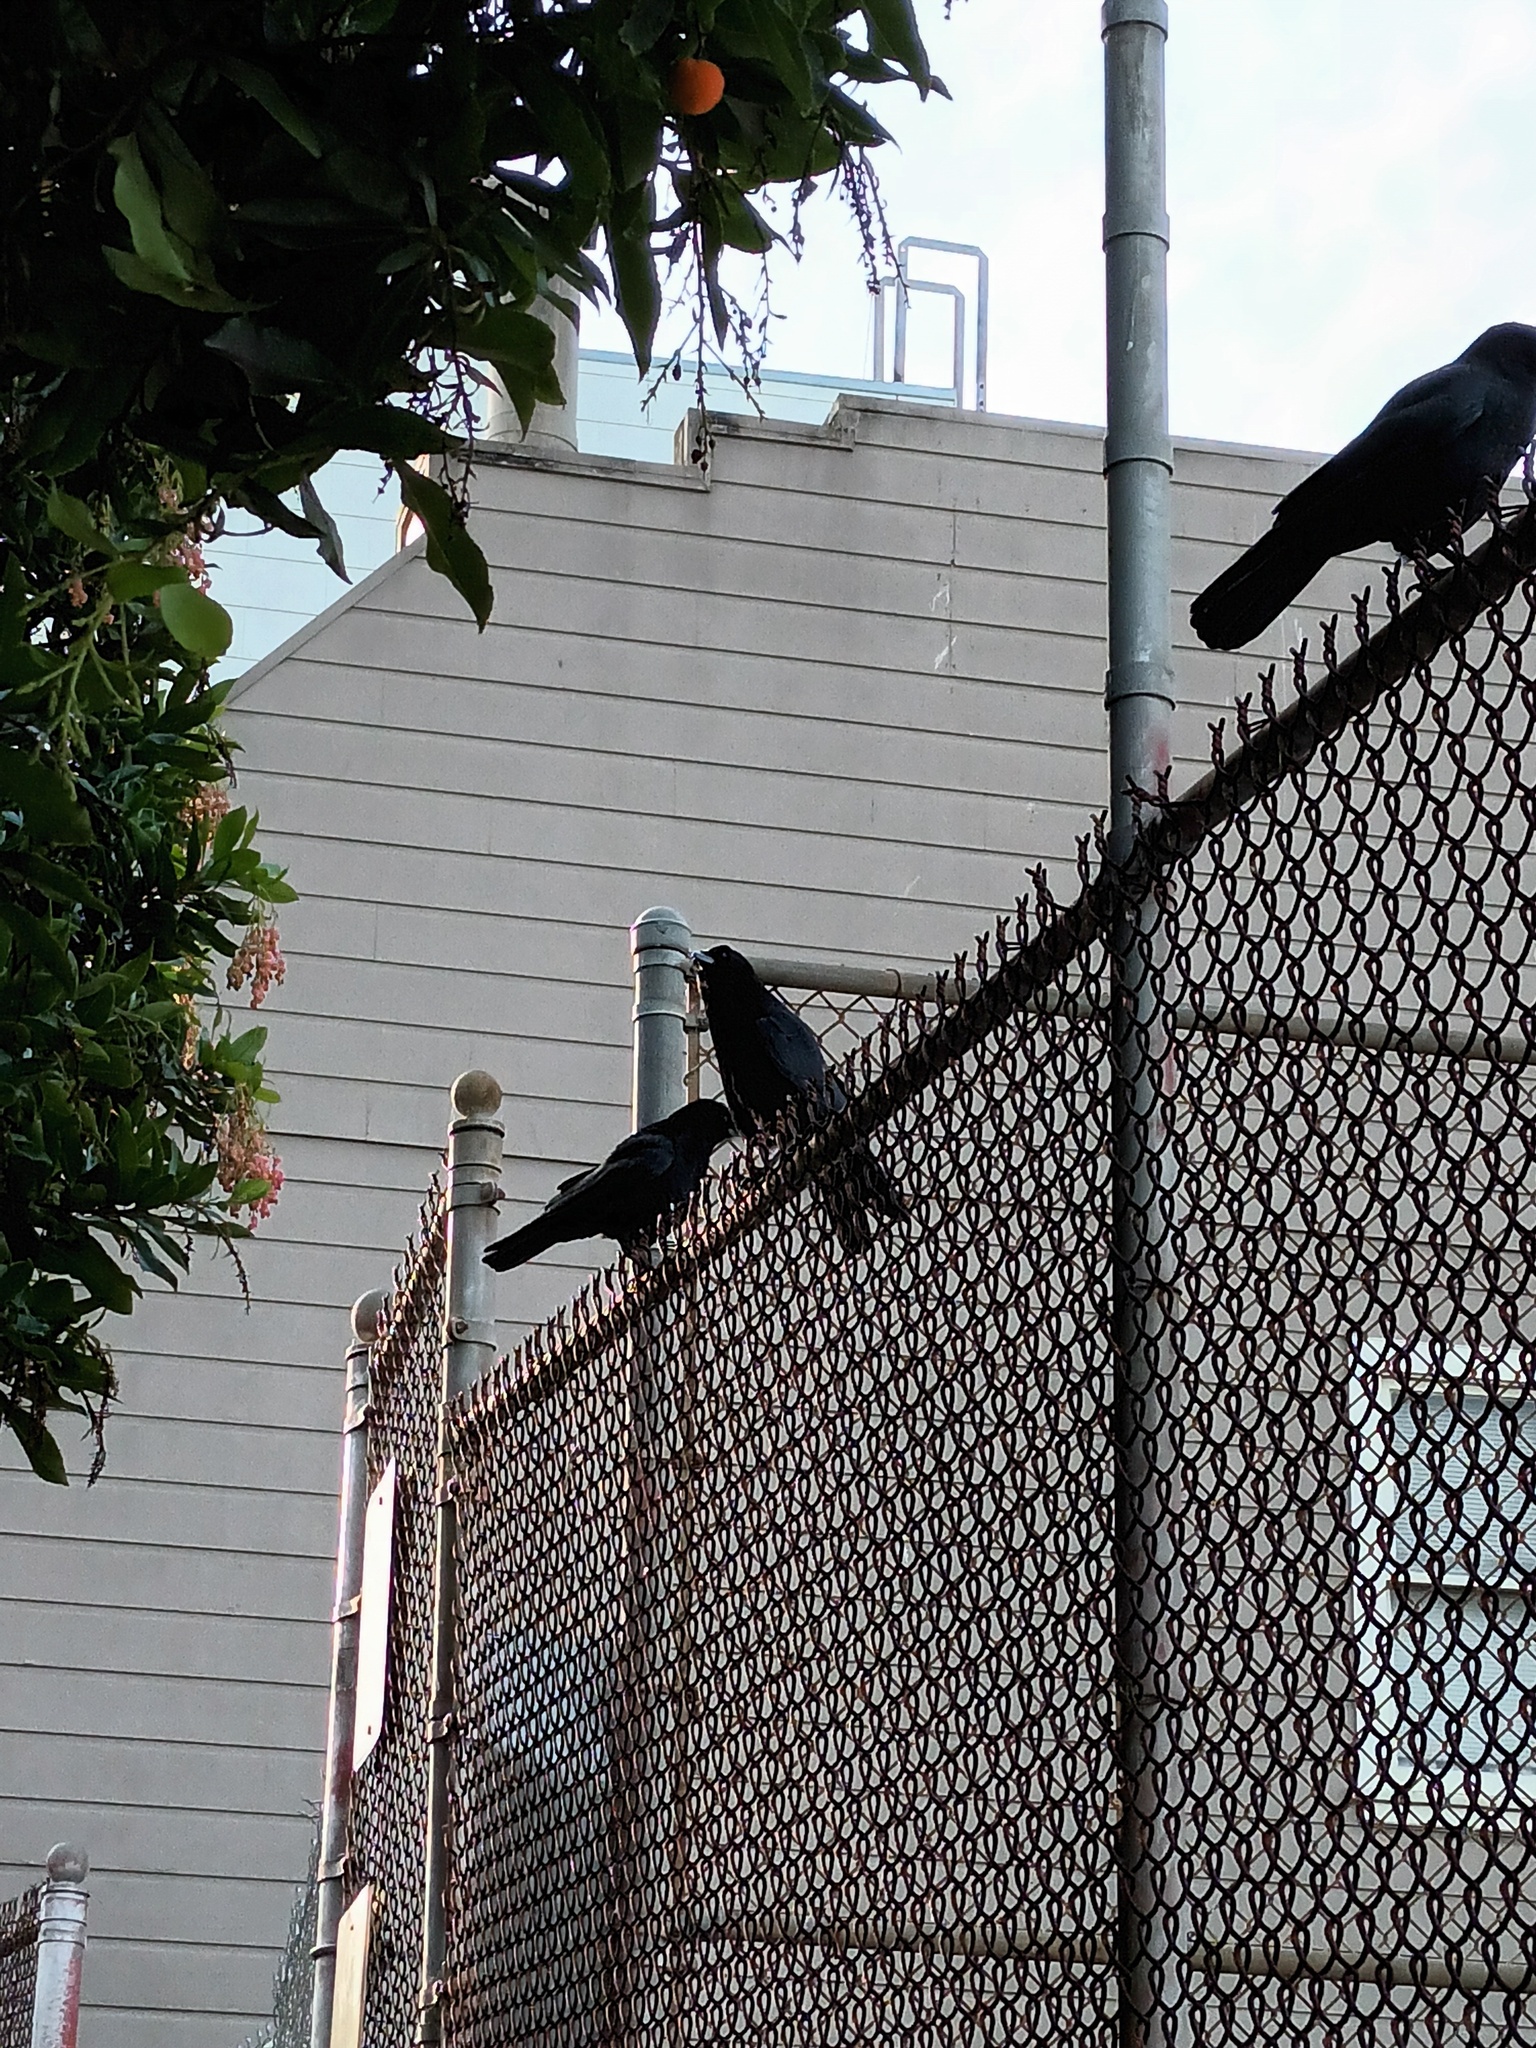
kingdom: Animalia
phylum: Chordata
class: Aves
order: Passeriformes
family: Corvidae
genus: Corvus
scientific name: Corvus brachyrhynchos
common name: American crow
